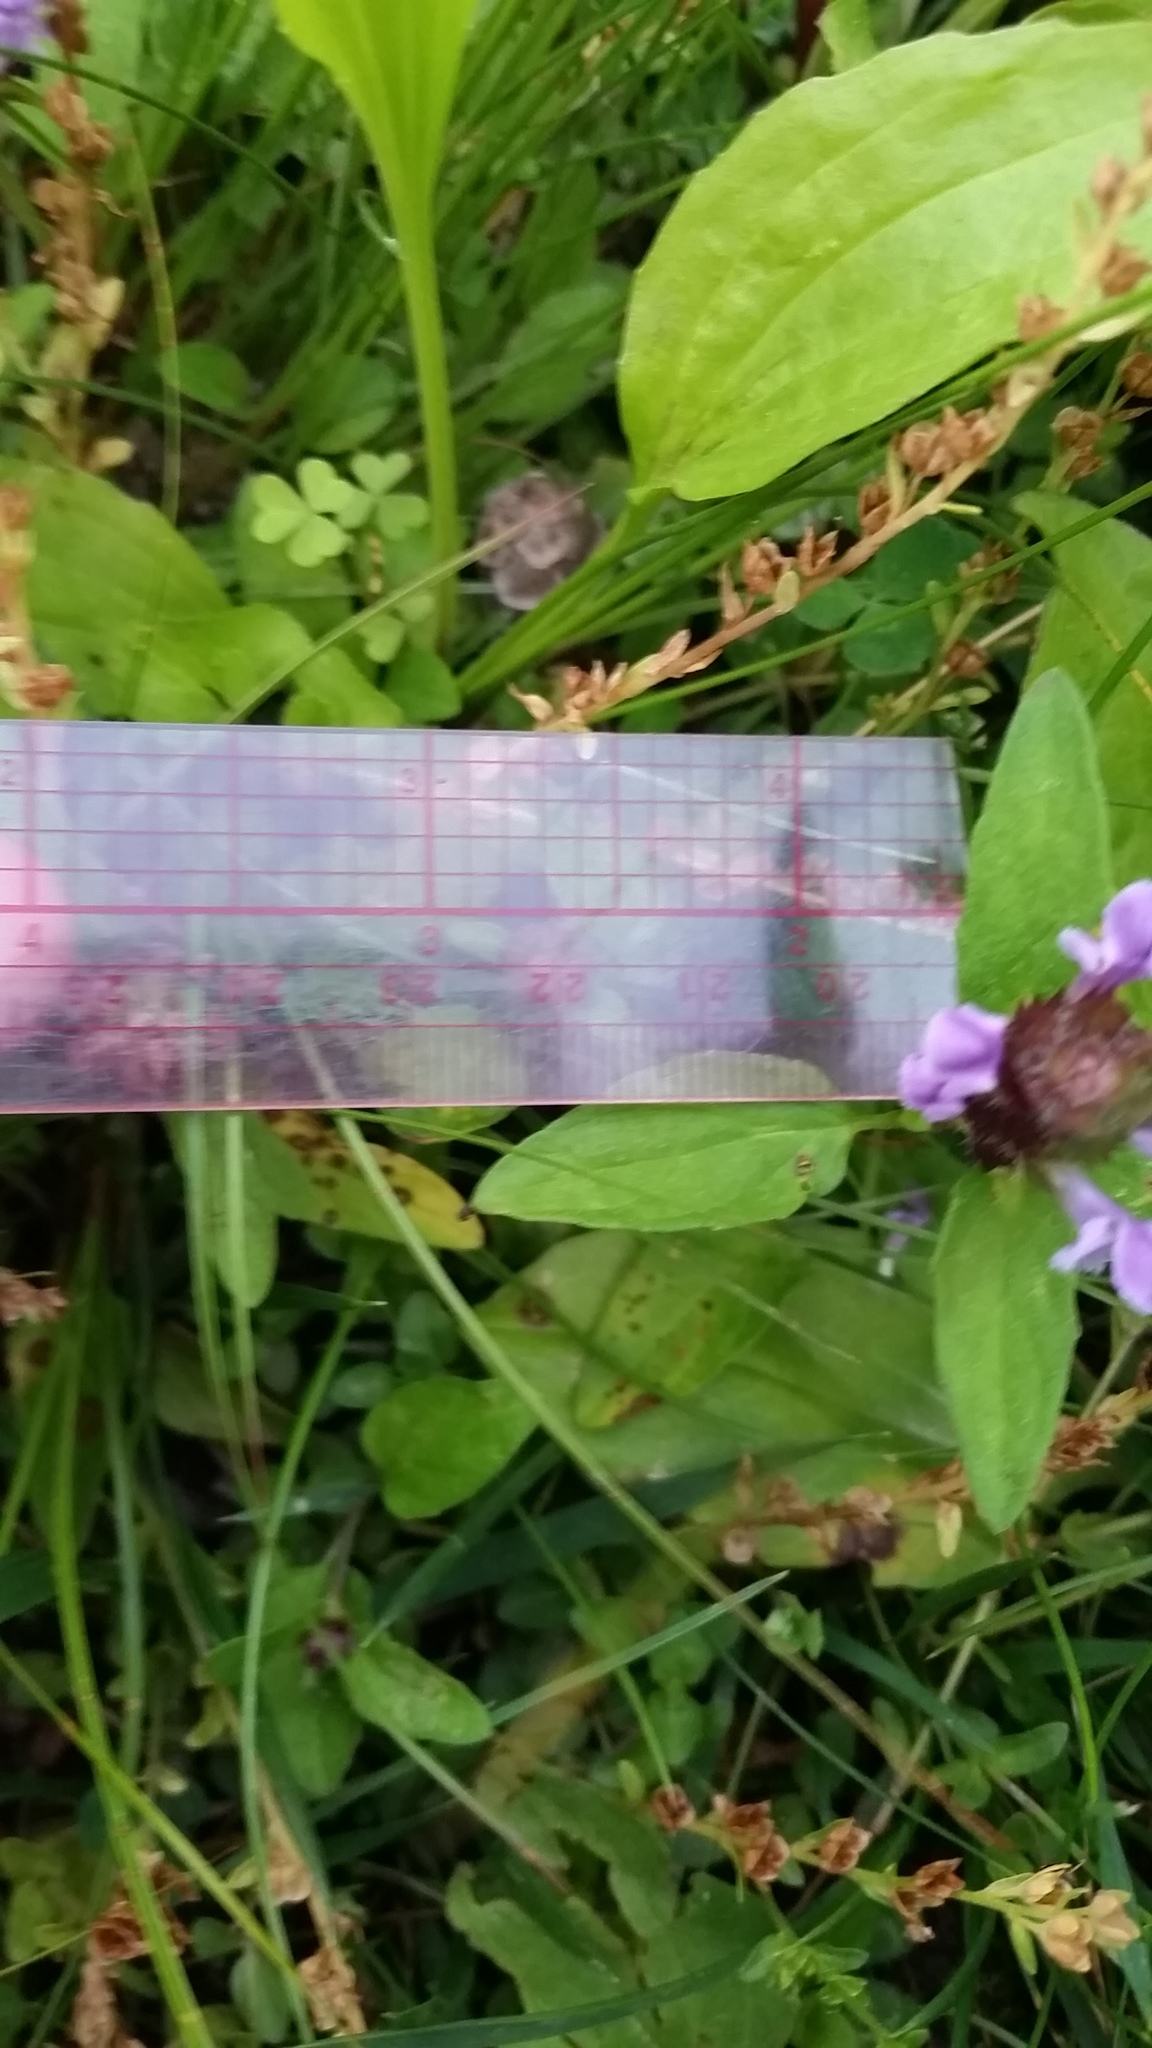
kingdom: Plantae
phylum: Tracheophyta
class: Magnoliopsida
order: Lamiales
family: Lamiaceae
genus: Prunella
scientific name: Prunella vulgaris
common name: Heal-all
